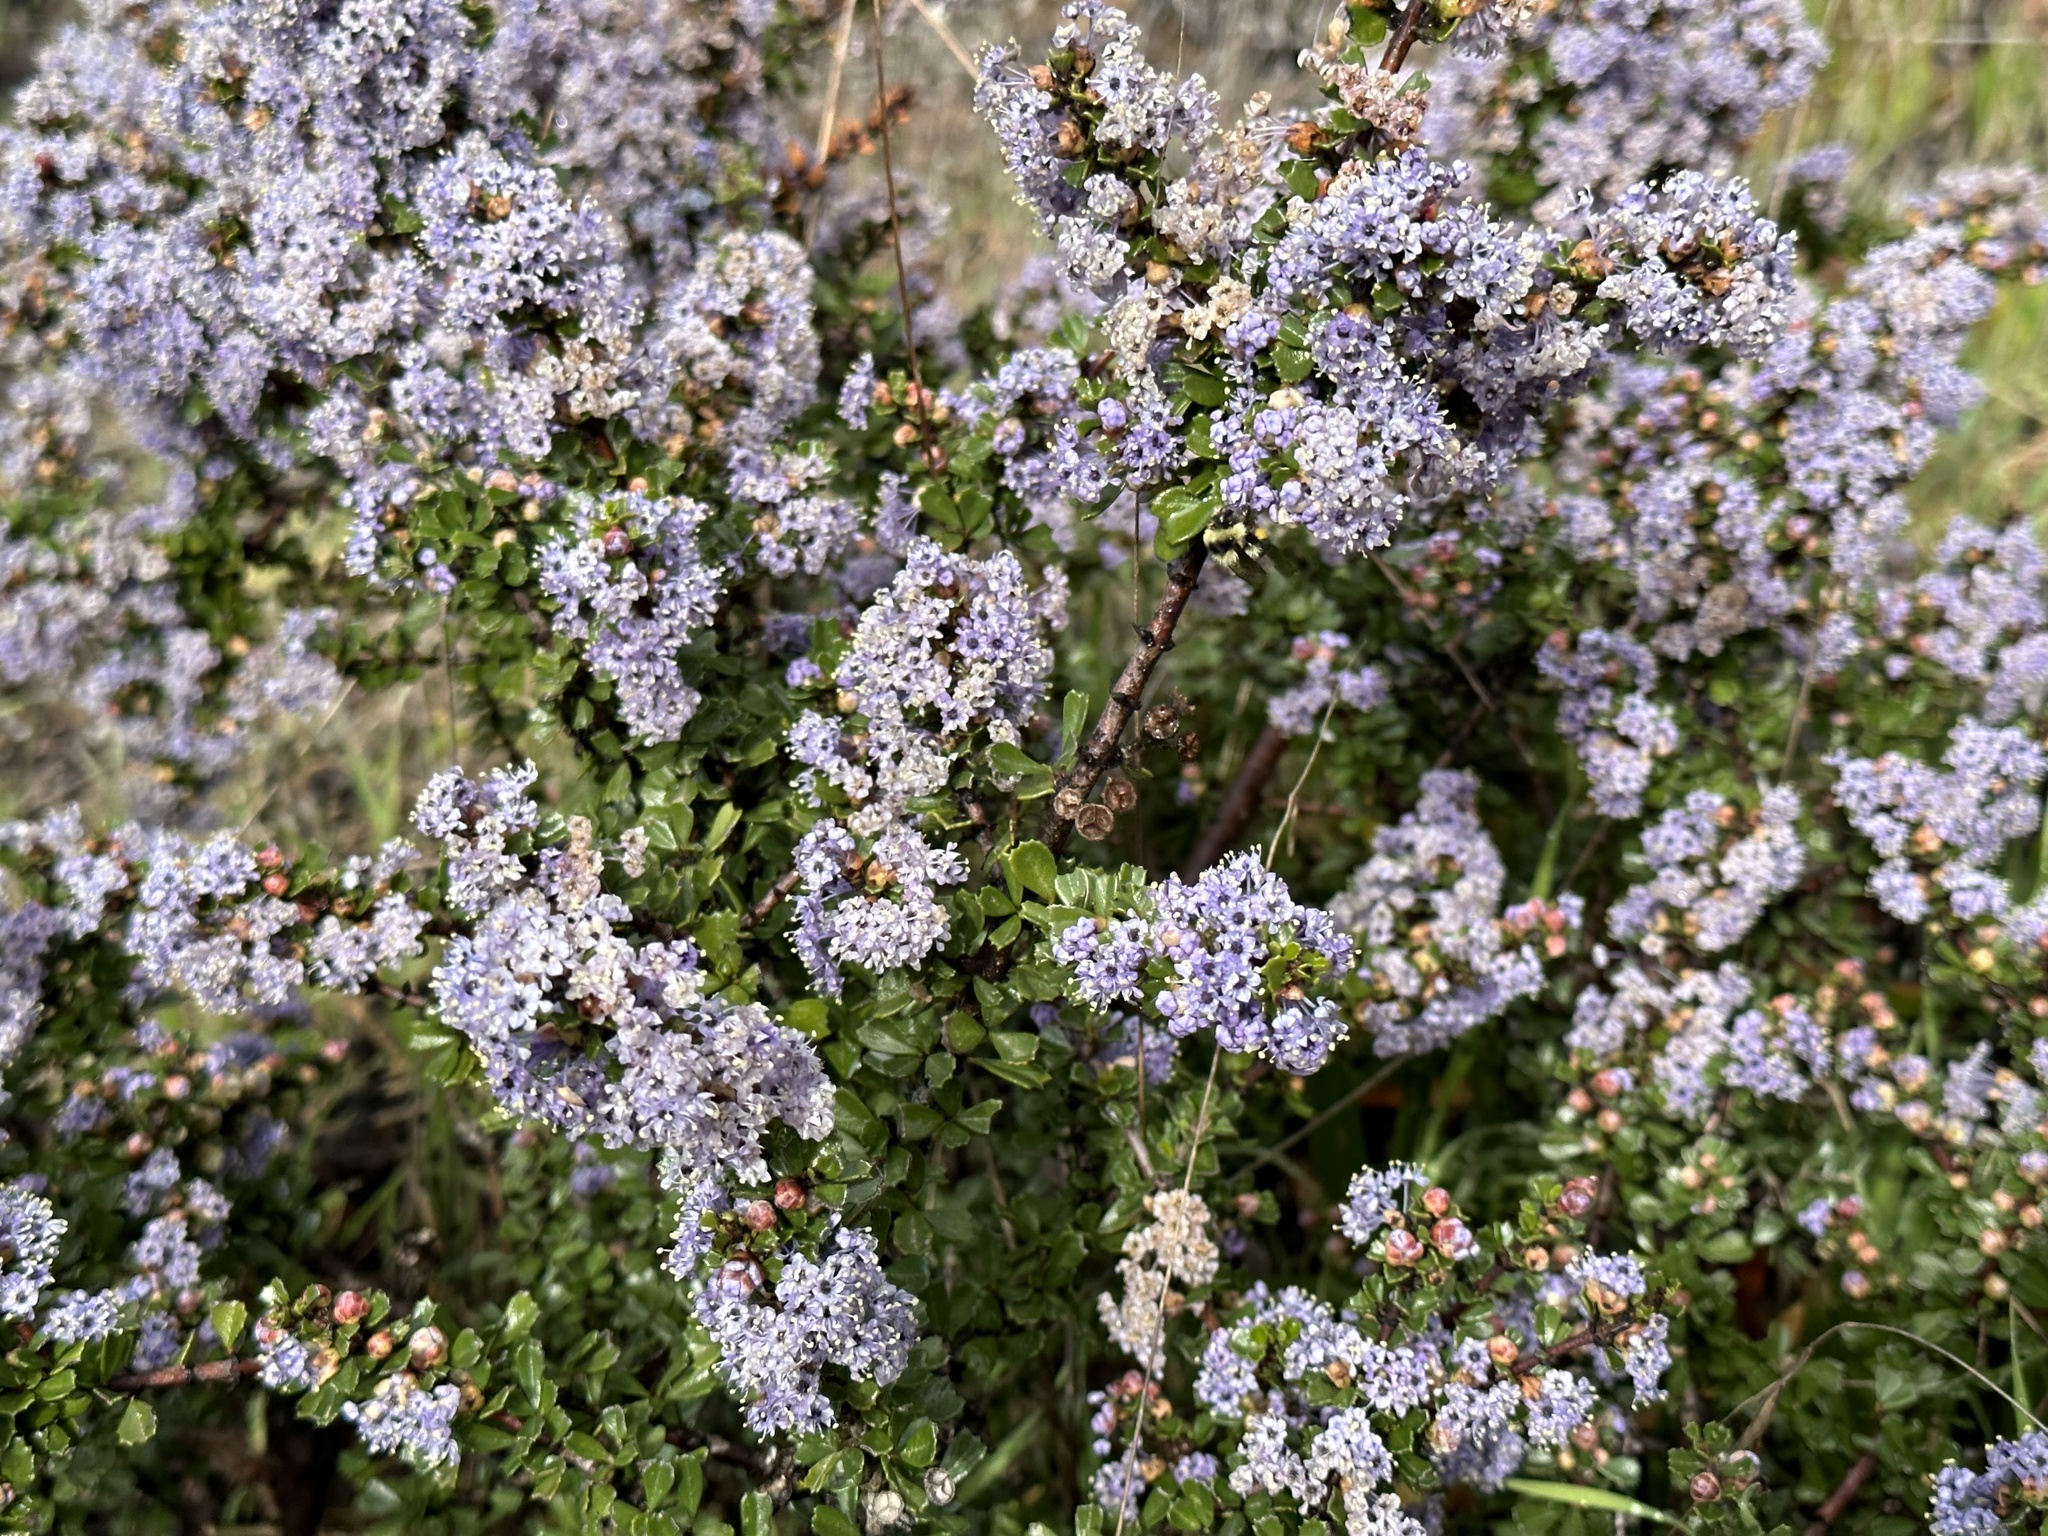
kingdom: Plantae
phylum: Tracheophyta
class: Magnoliopsida
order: Rosales
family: Rhamnaceae
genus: Ceanothus
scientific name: Ceanothus cuneatus
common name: Cuneate ceanothus
